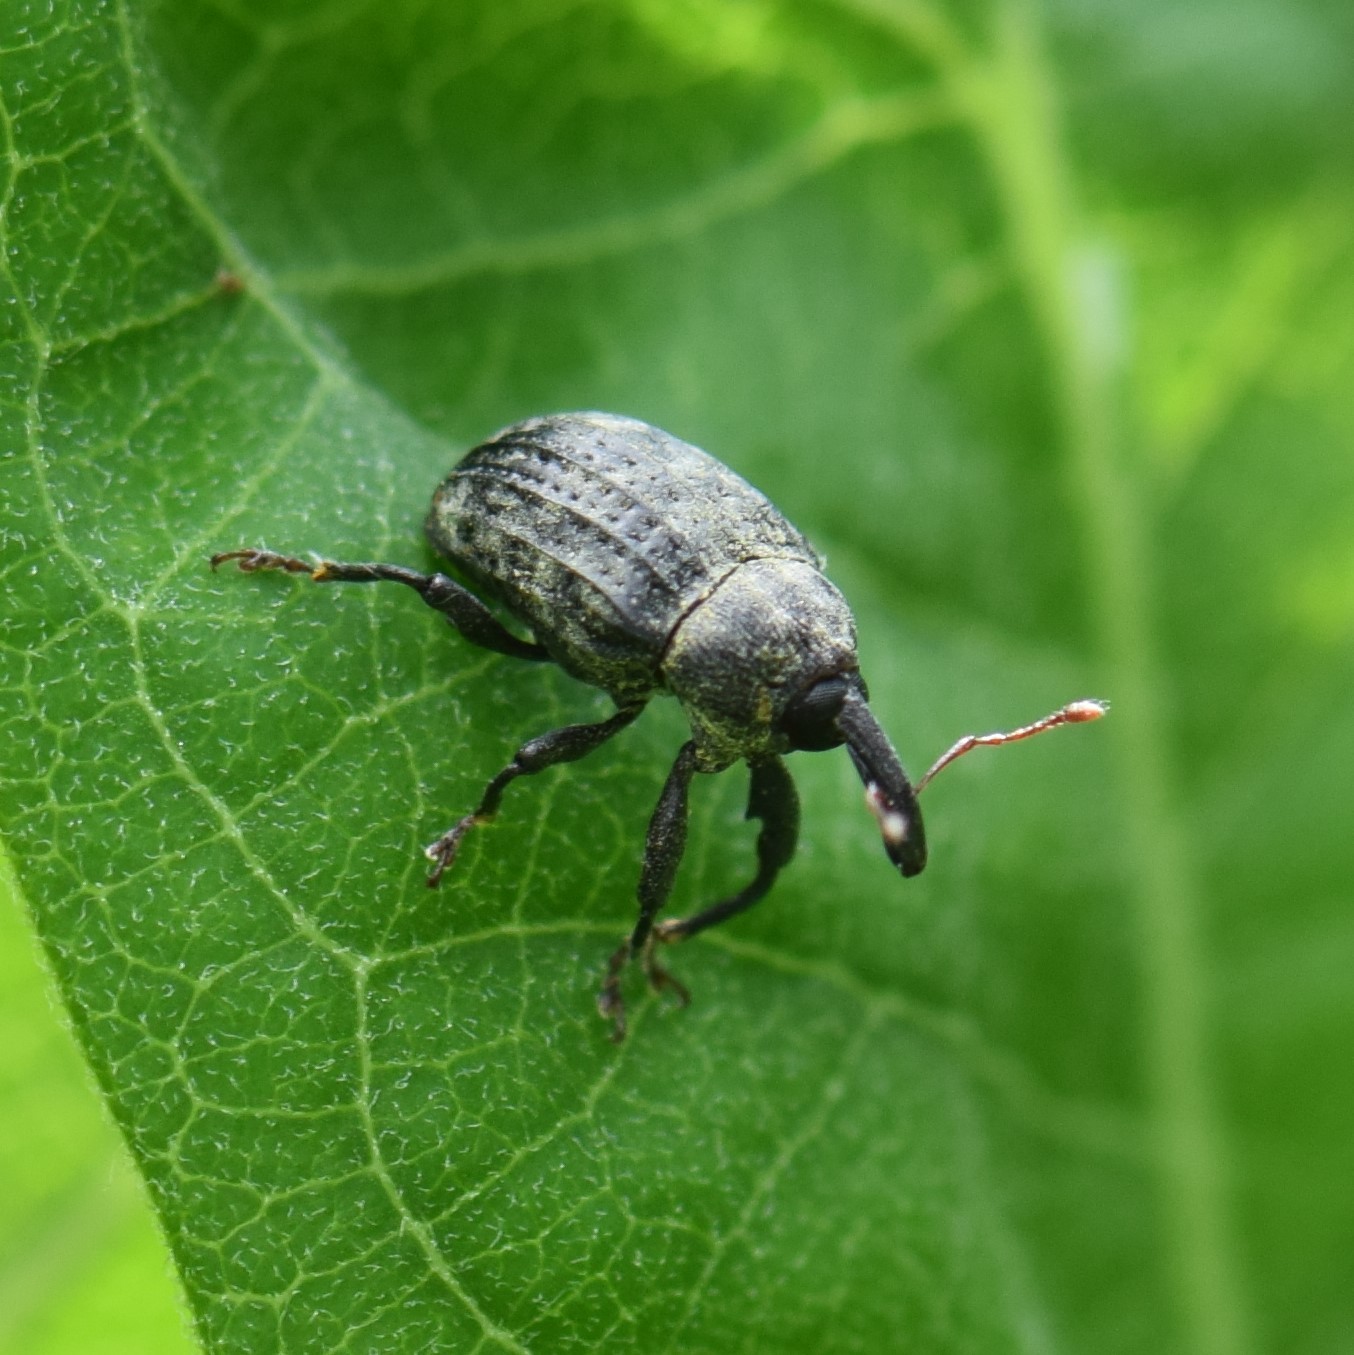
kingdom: Animalia
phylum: Arthropoda
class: Insecta
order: Coleoptera
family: Curculionidae
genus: Rhyssomatus
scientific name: Rhyssomatus lineaticollis
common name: Milkweed stem weevil
